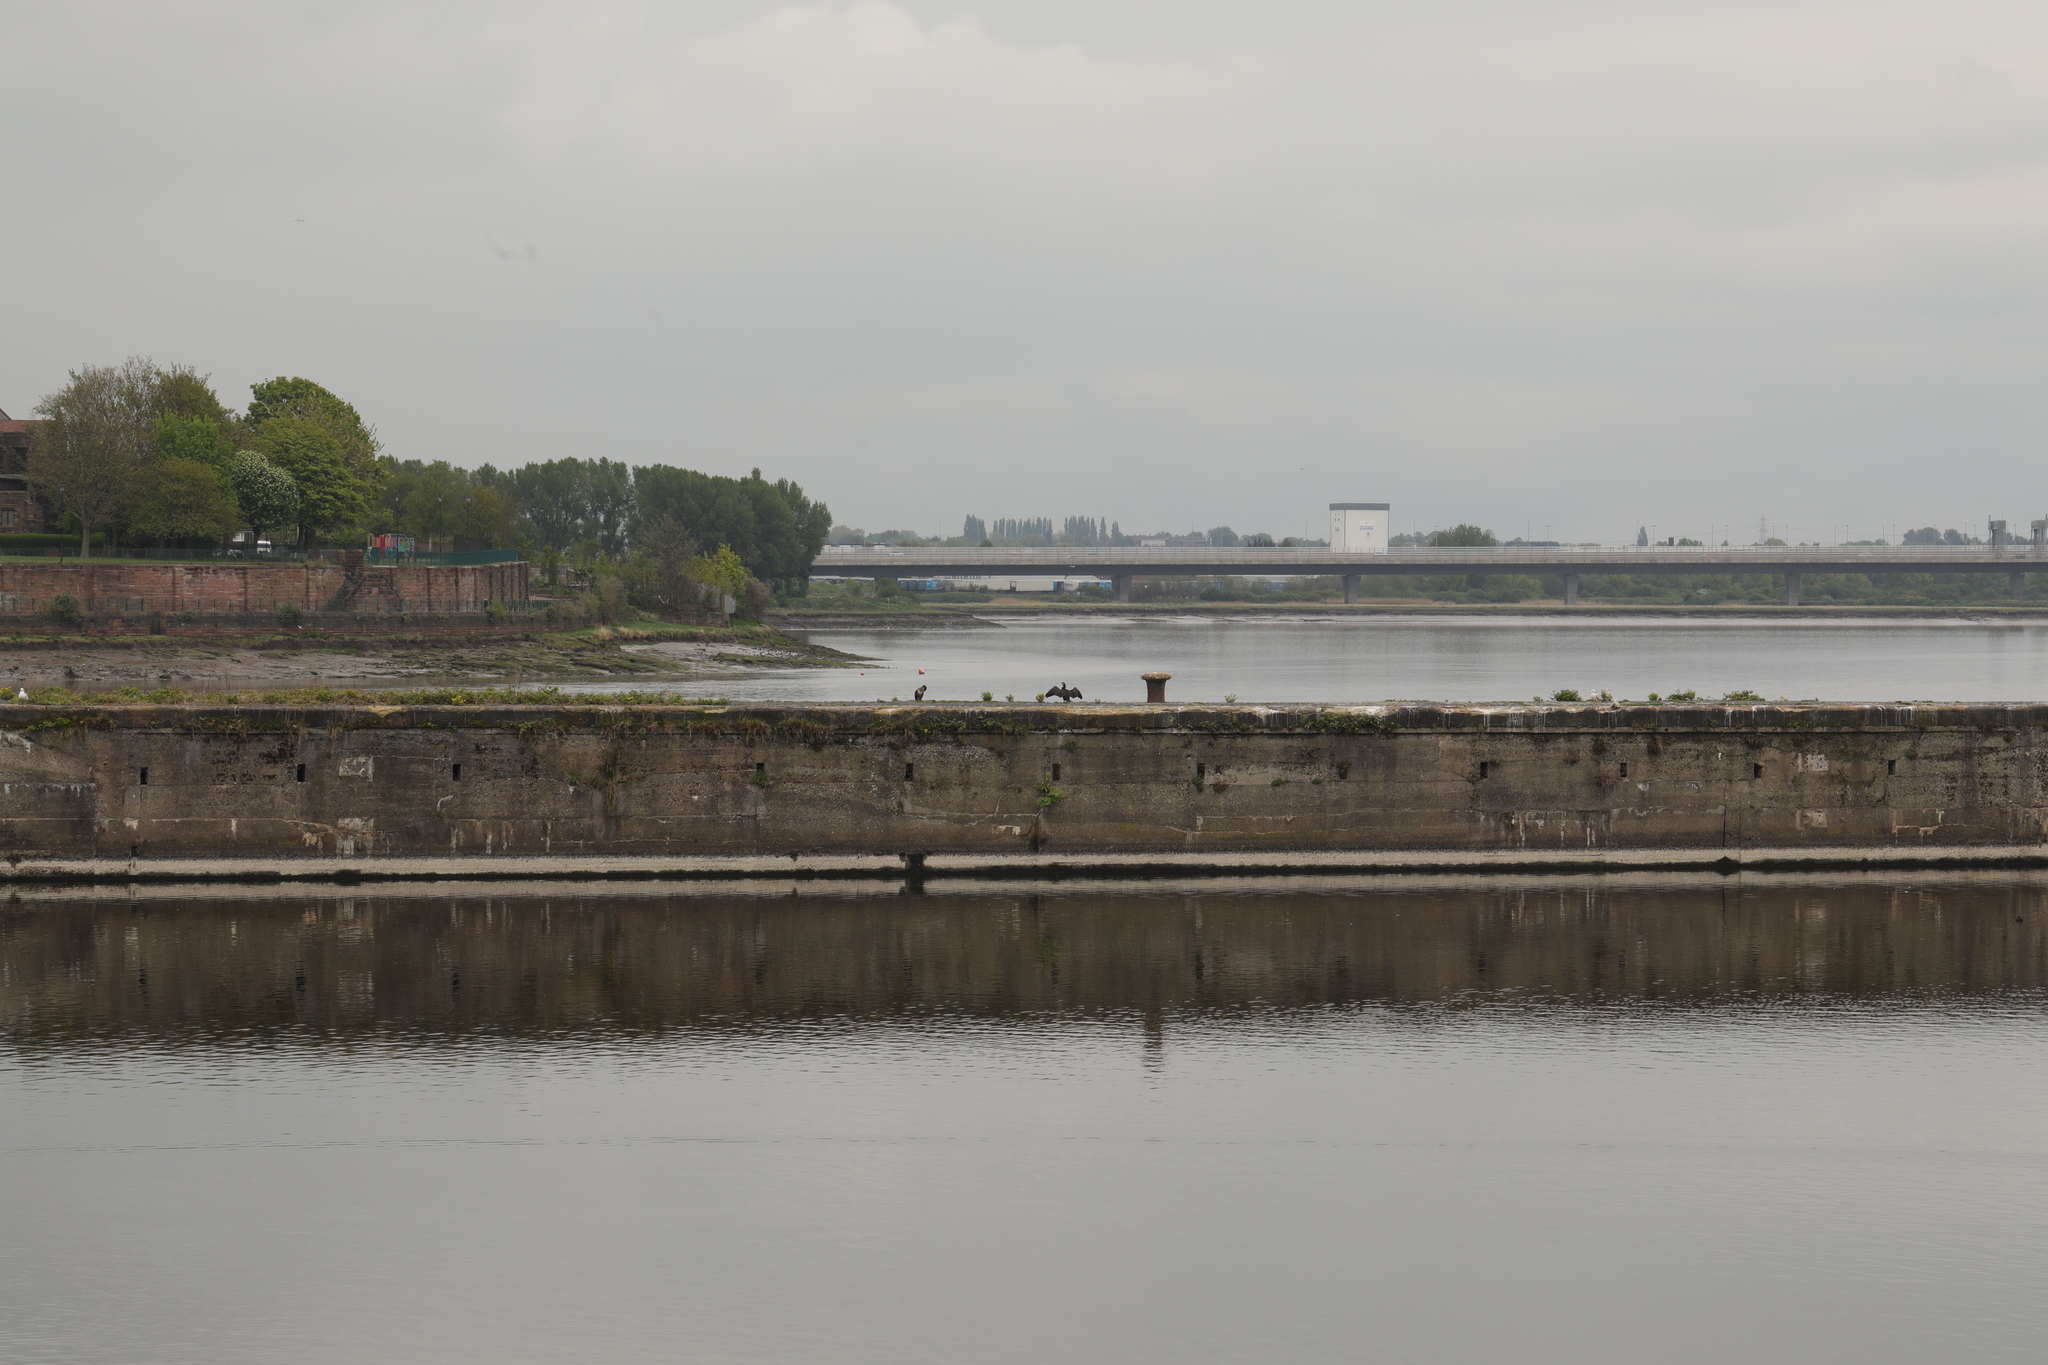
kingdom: Animalia
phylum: Chordata
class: Aves
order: Suliformes
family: Phalacrocoracidae
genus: Phalacrocorax
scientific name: Phalacrocorax carbo
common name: Great cormorant
